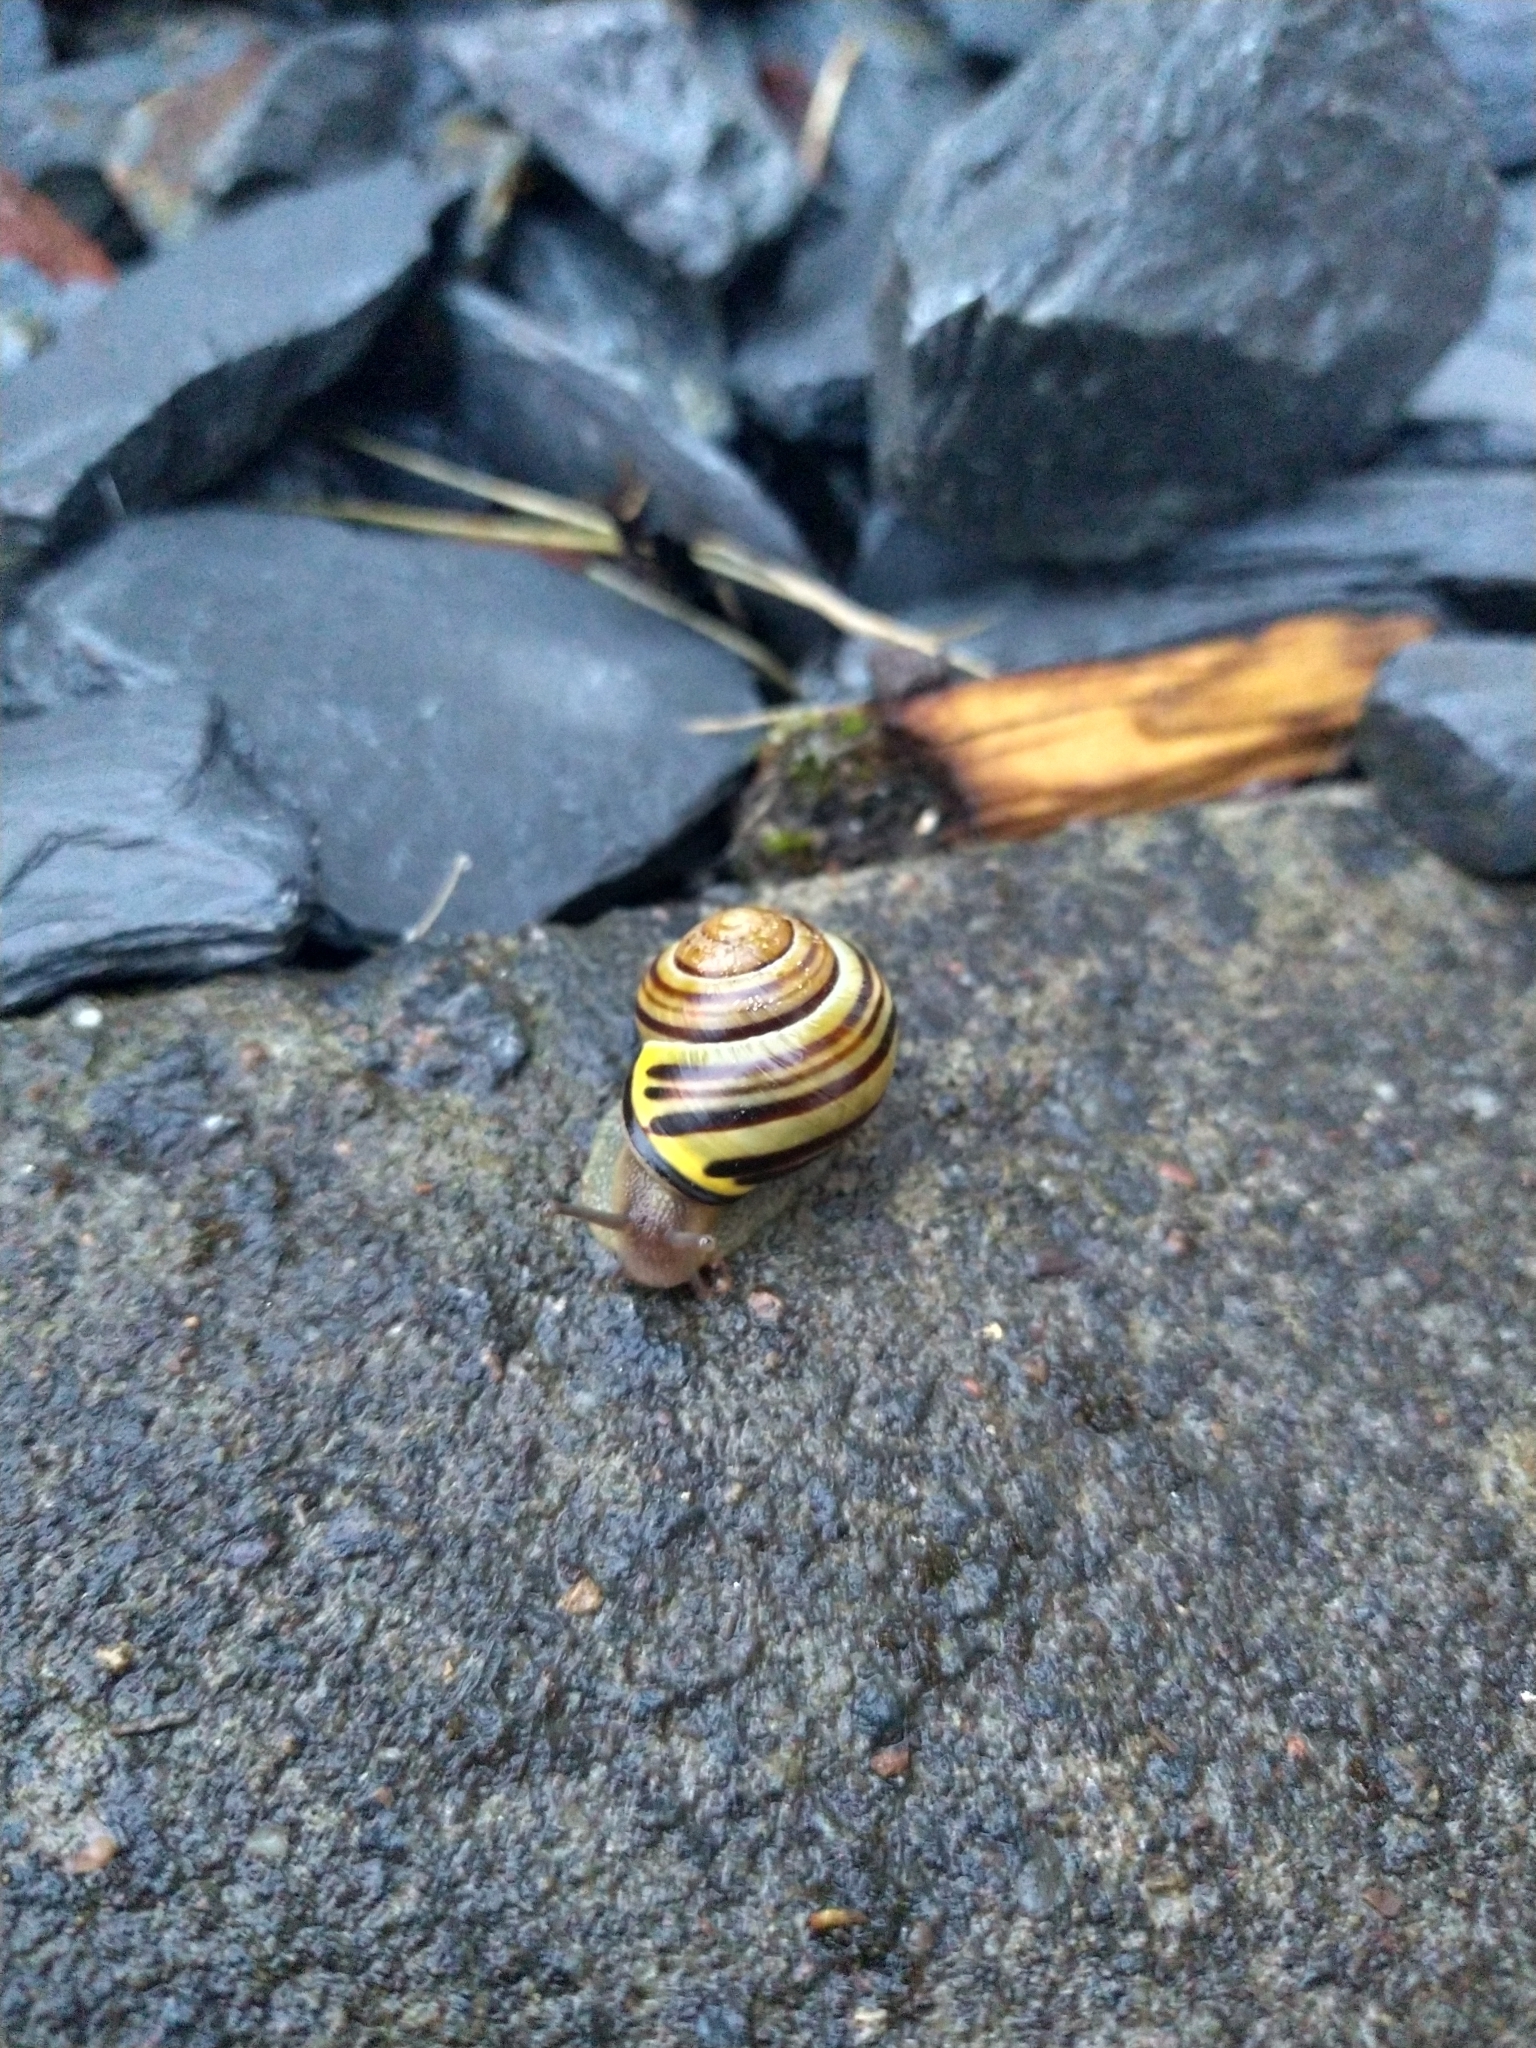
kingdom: Animalia
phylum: Mollusca
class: Gastropoda
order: Stylommatophora
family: Helicidae
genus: Cepaea
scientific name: Cepaea nemoralis
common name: Grovesnail
